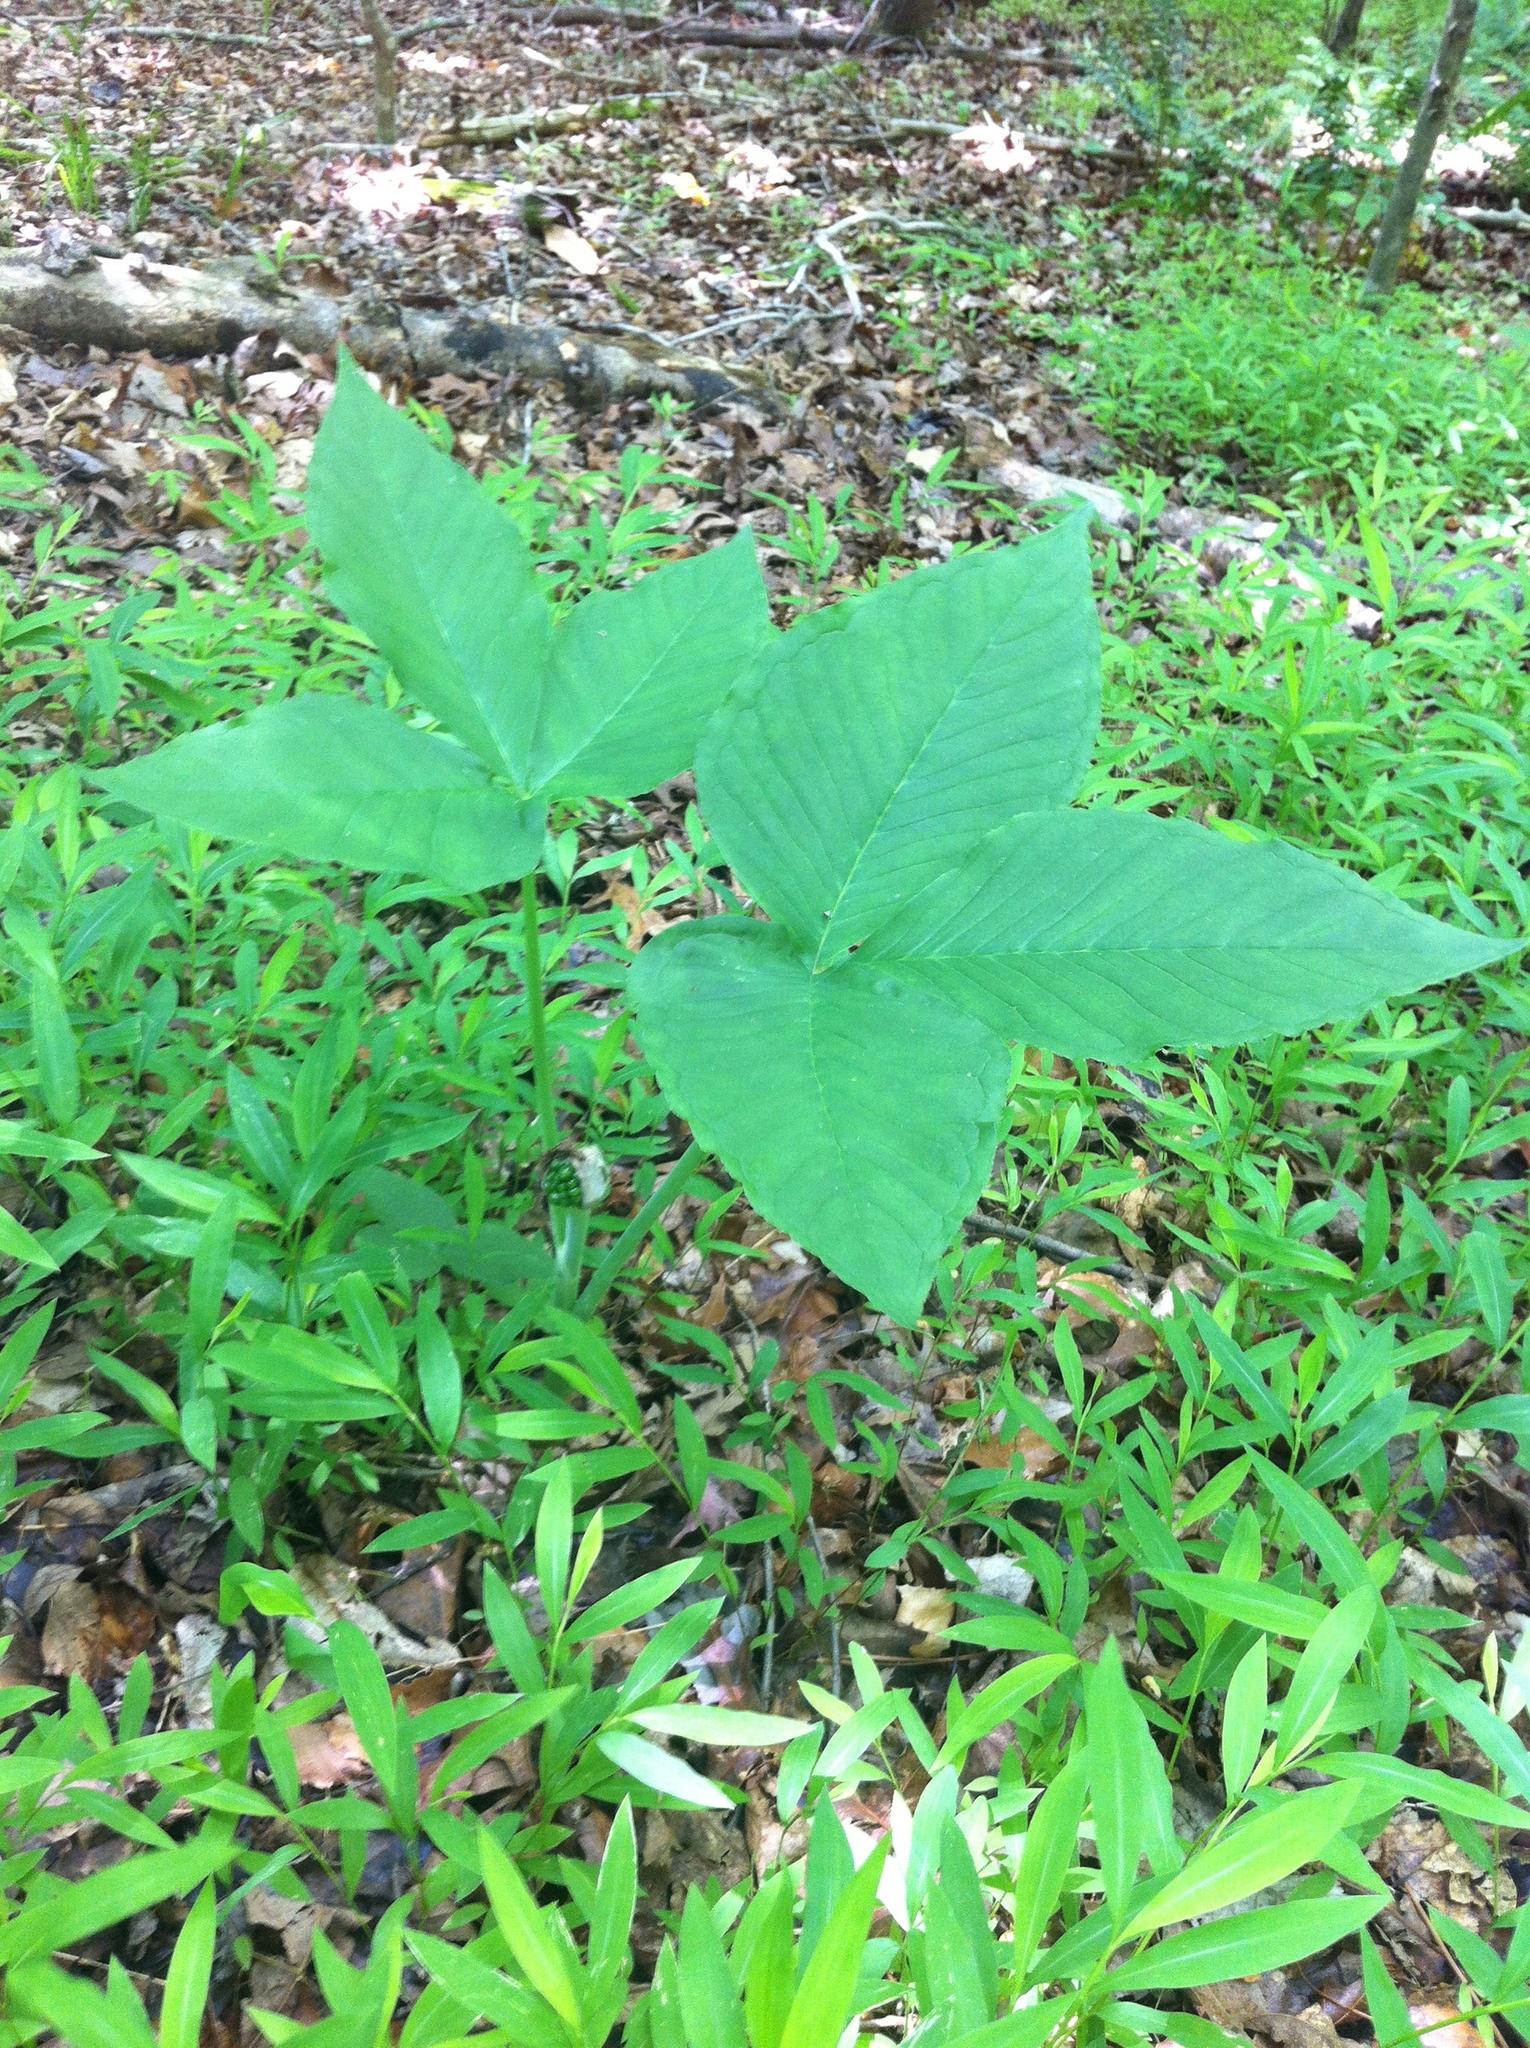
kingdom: Plantae
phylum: Tracheophyta
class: Liliopsida
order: Alismatales
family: Araceae
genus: Arisaema
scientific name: Arisaema triphyllum
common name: Jack-in-the-pulpit
